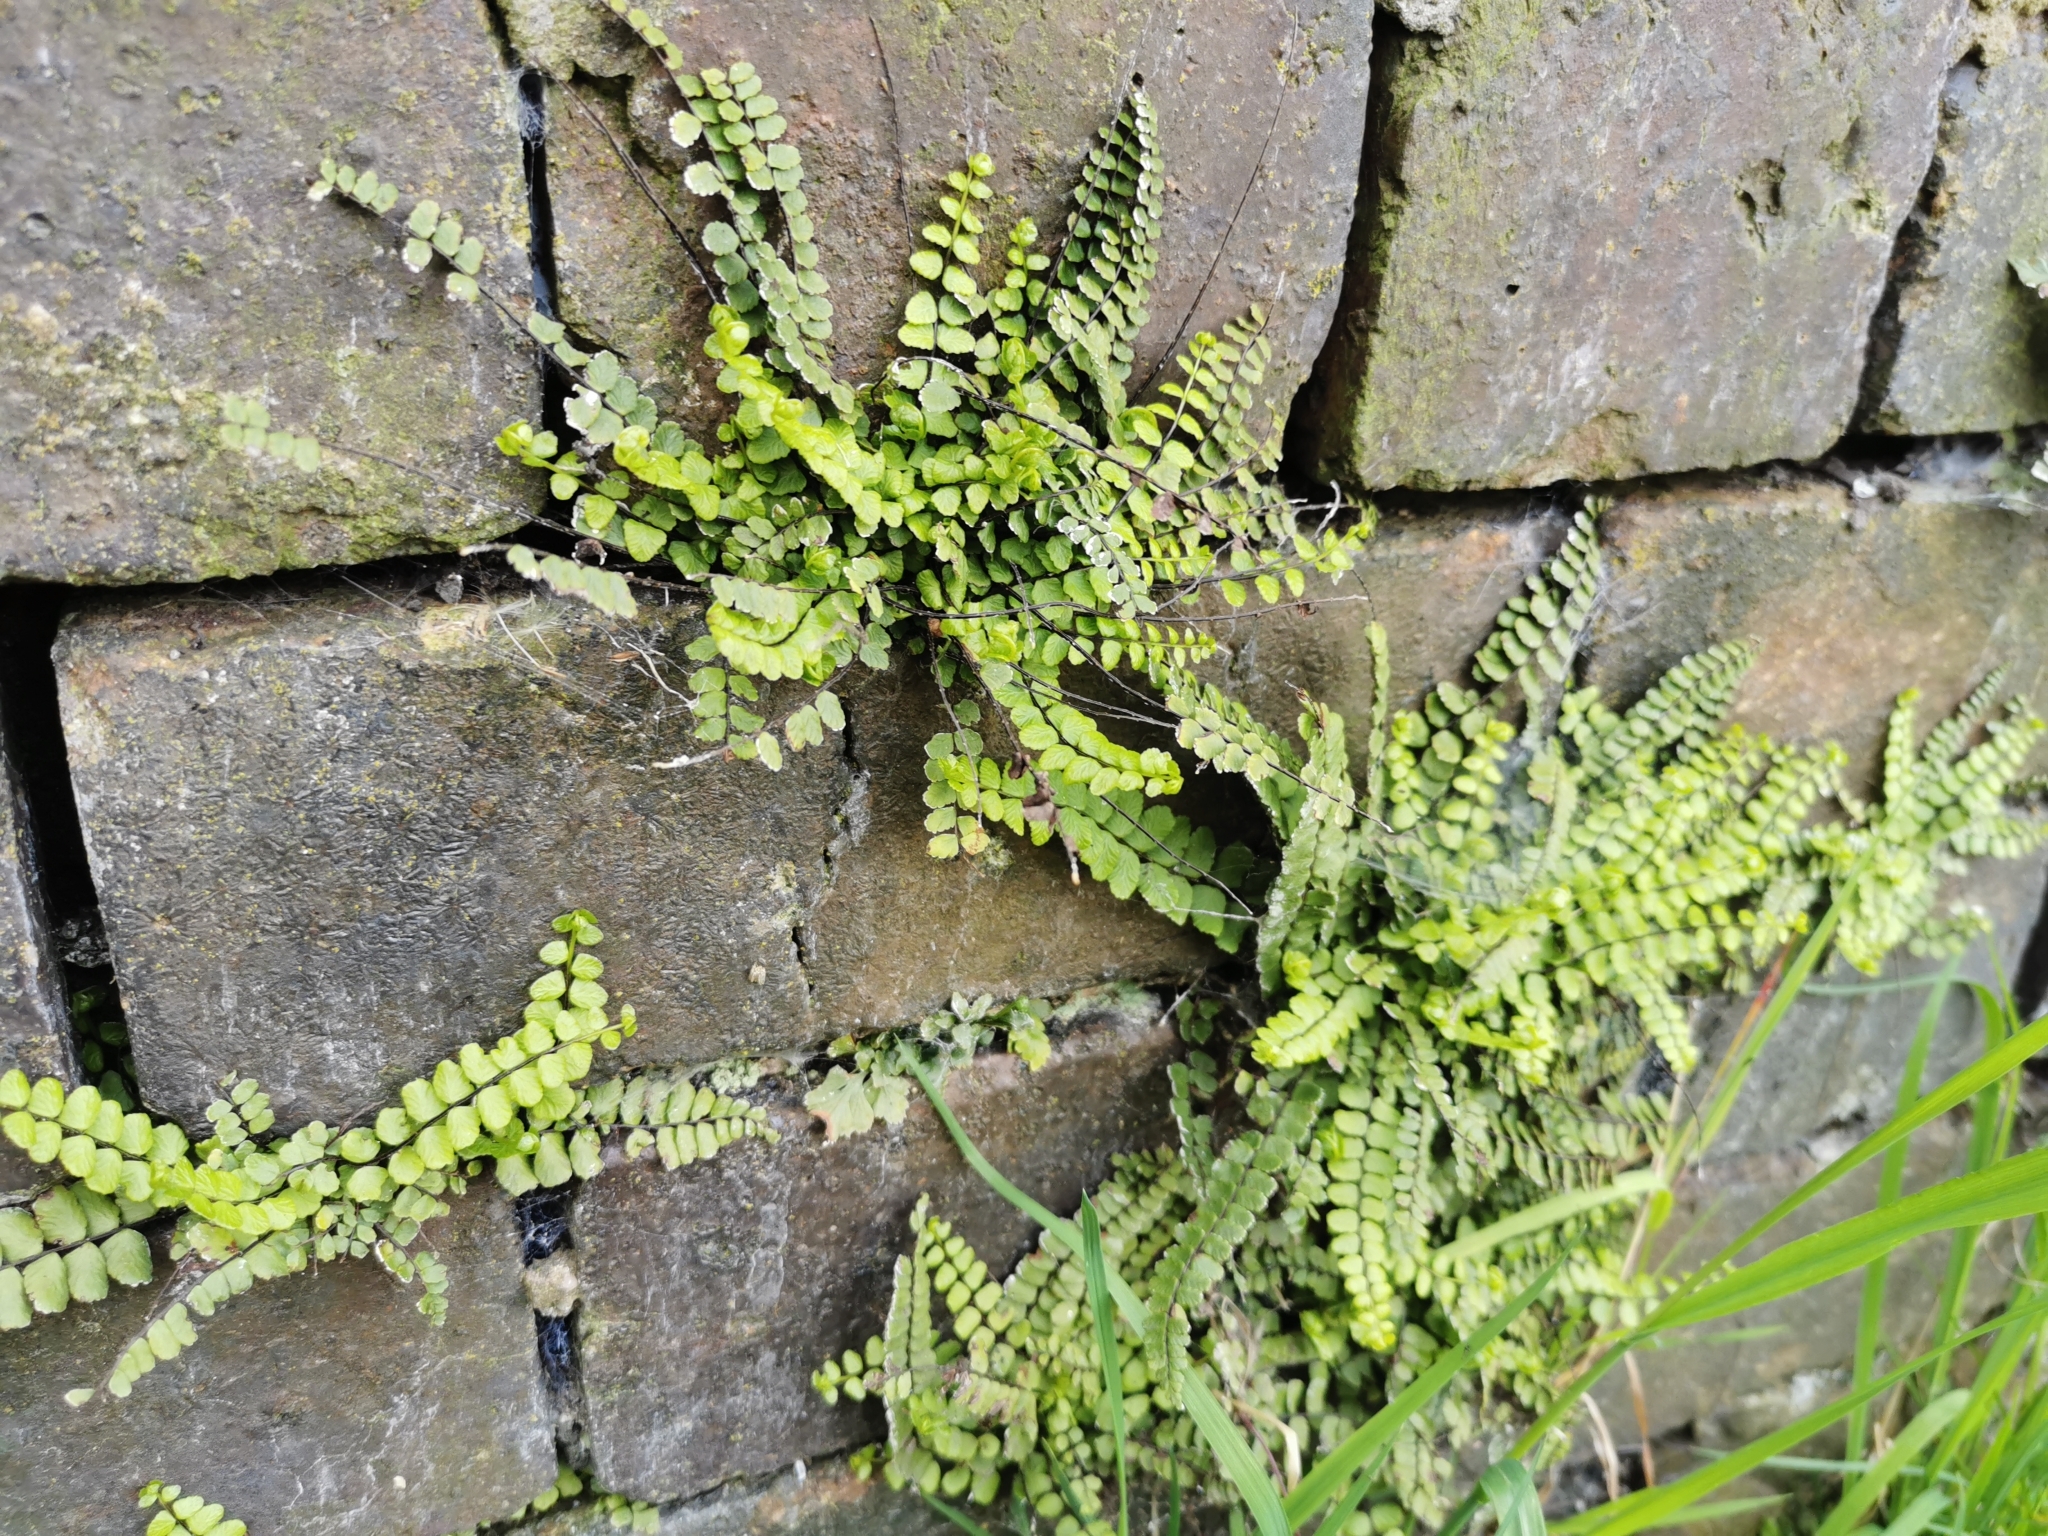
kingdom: Plantae
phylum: Tracheophyta
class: Polypodiopsida
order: Polypodiales
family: Aspleniaceae
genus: Asplenium
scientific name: Asplenium trichomanes
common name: Maidenhair spleenwort
